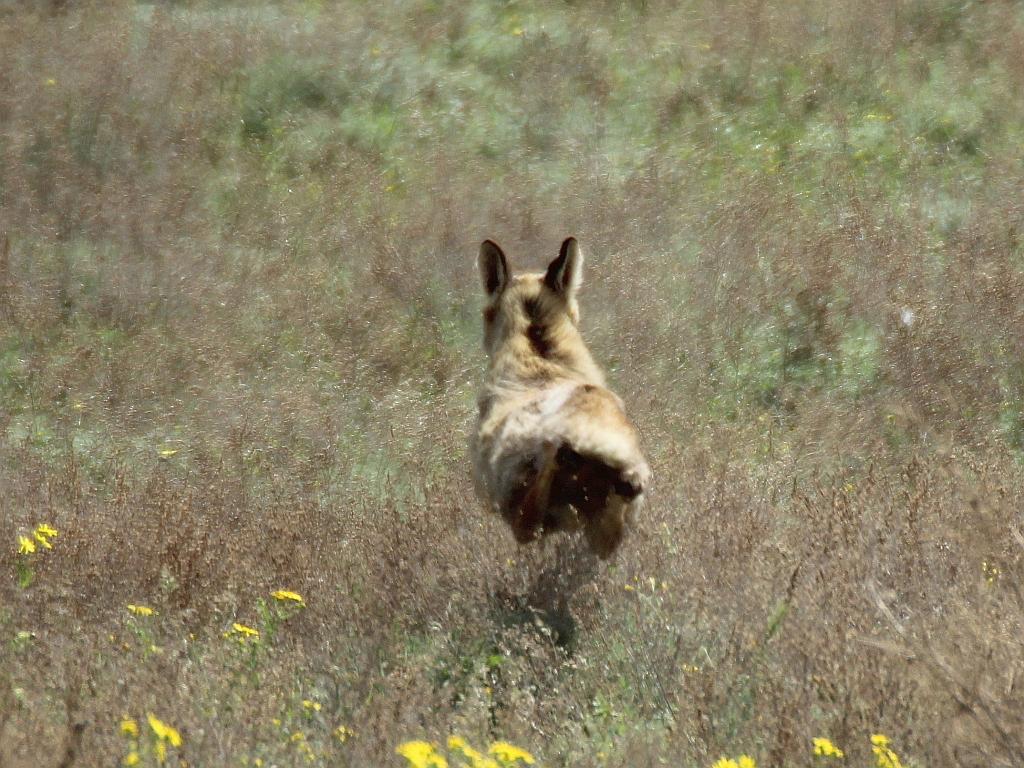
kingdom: Animalia
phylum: Chordata
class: Mammalia
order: Carnivora
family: Canidae
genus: Vulpes
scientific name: Vulpes vulpes
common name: Red fox
